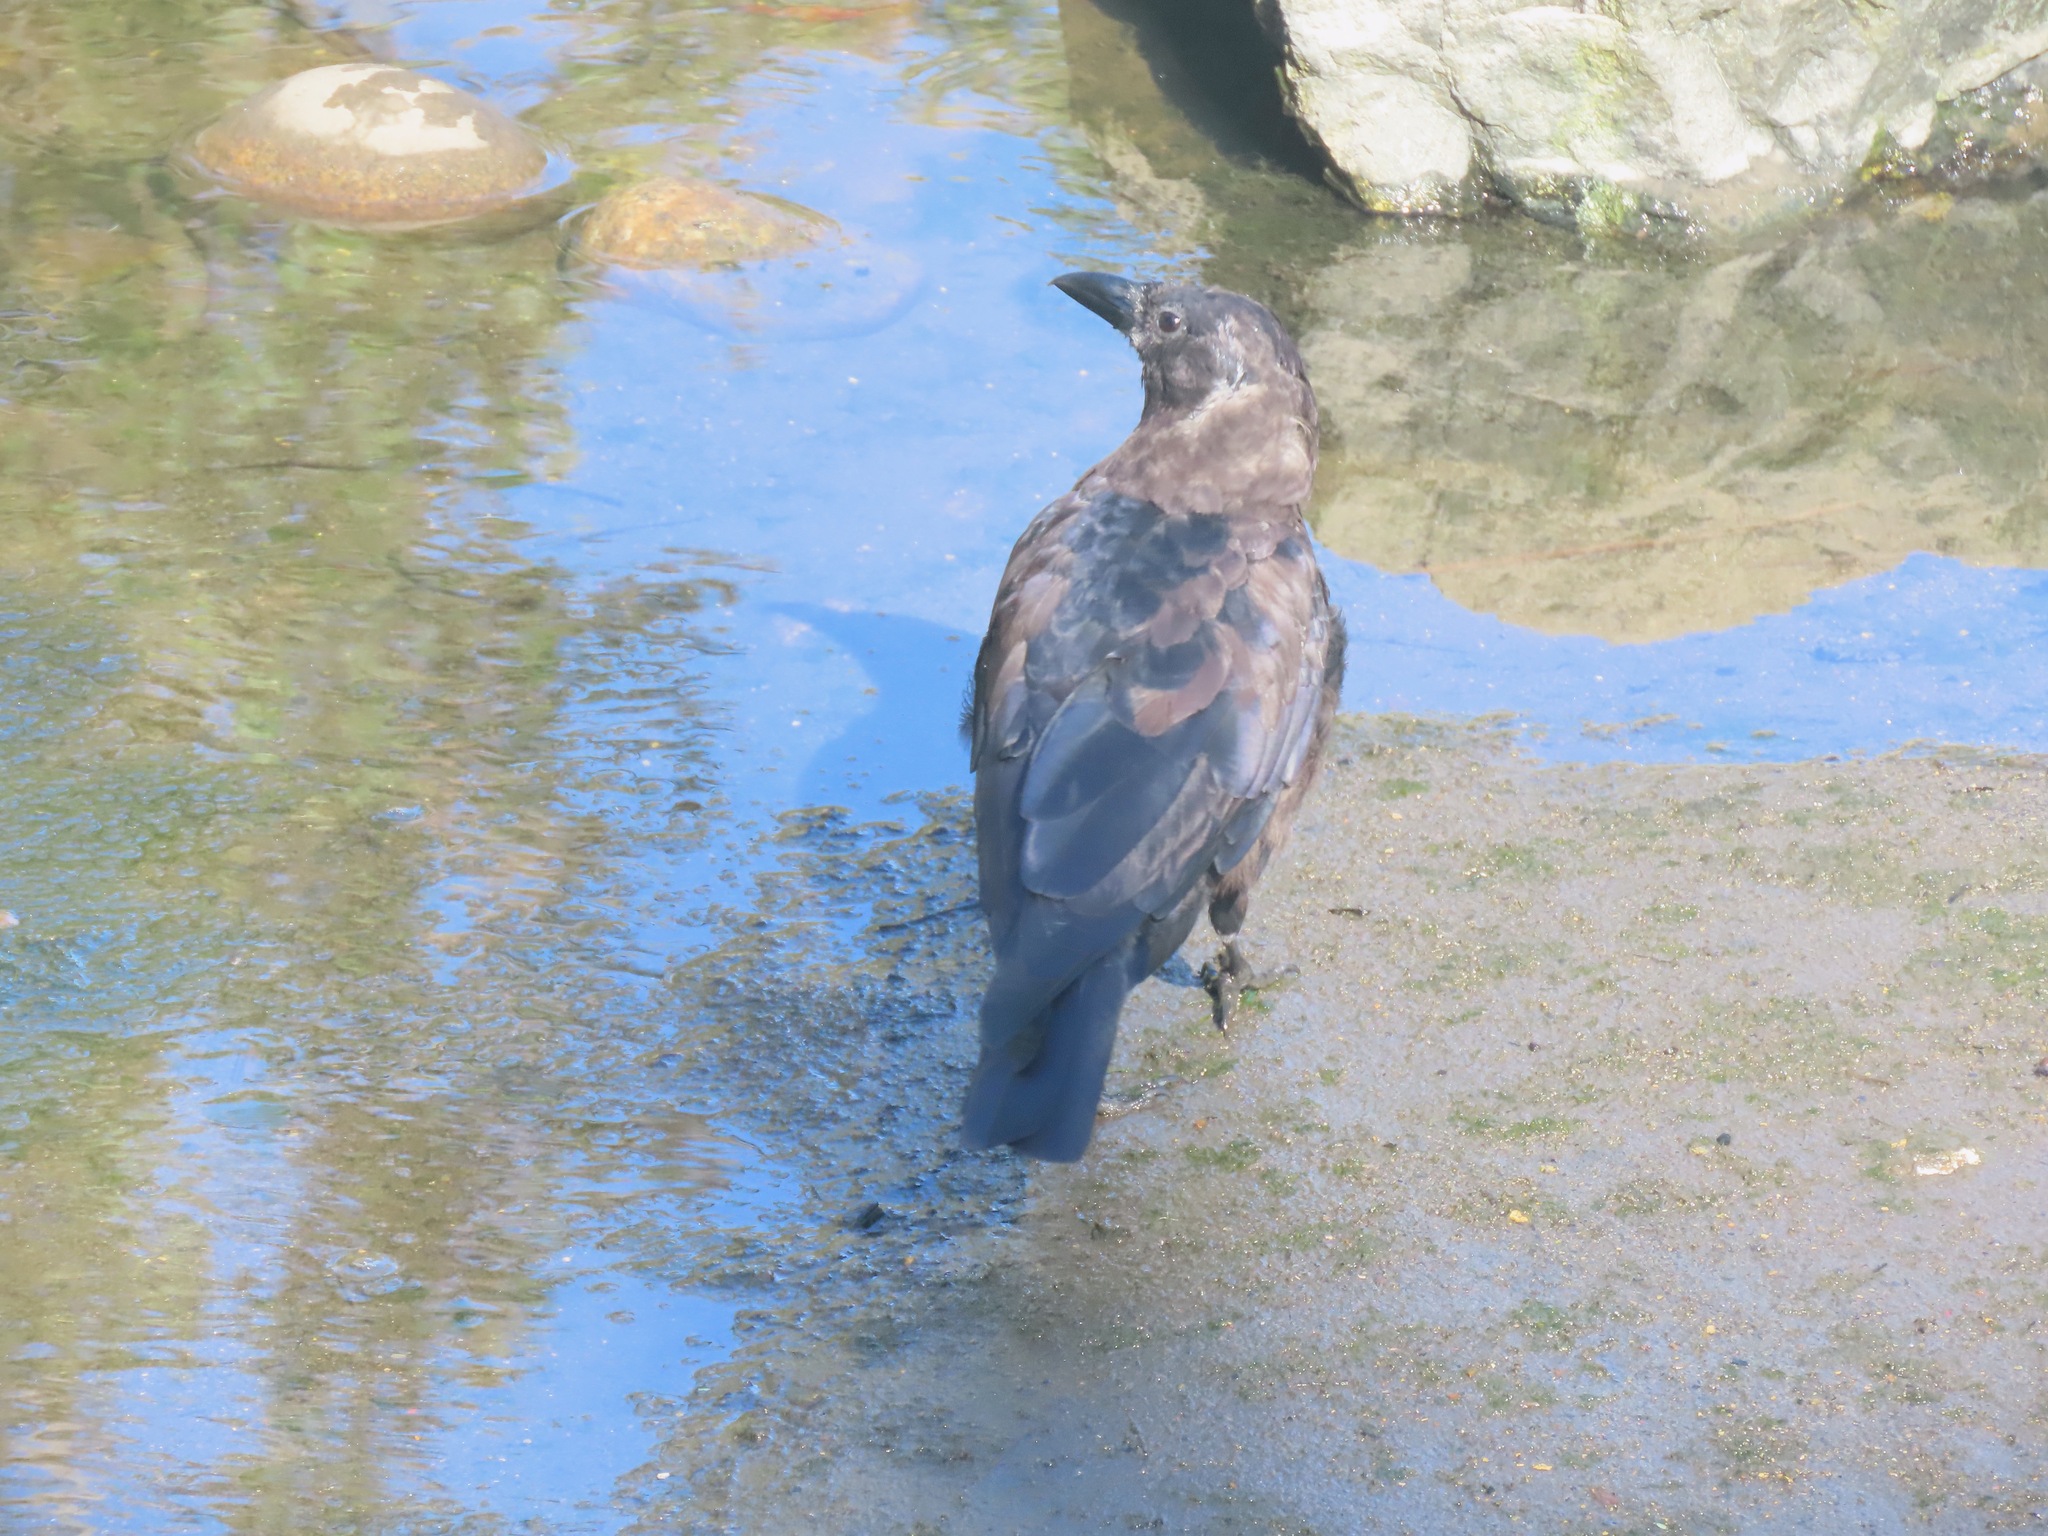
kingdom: Animalia
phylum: Chordata
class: Aves
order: Passeriformes
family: Corvidae
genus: Corvus
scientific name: Corvus brachyrhynchos
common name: American crow
